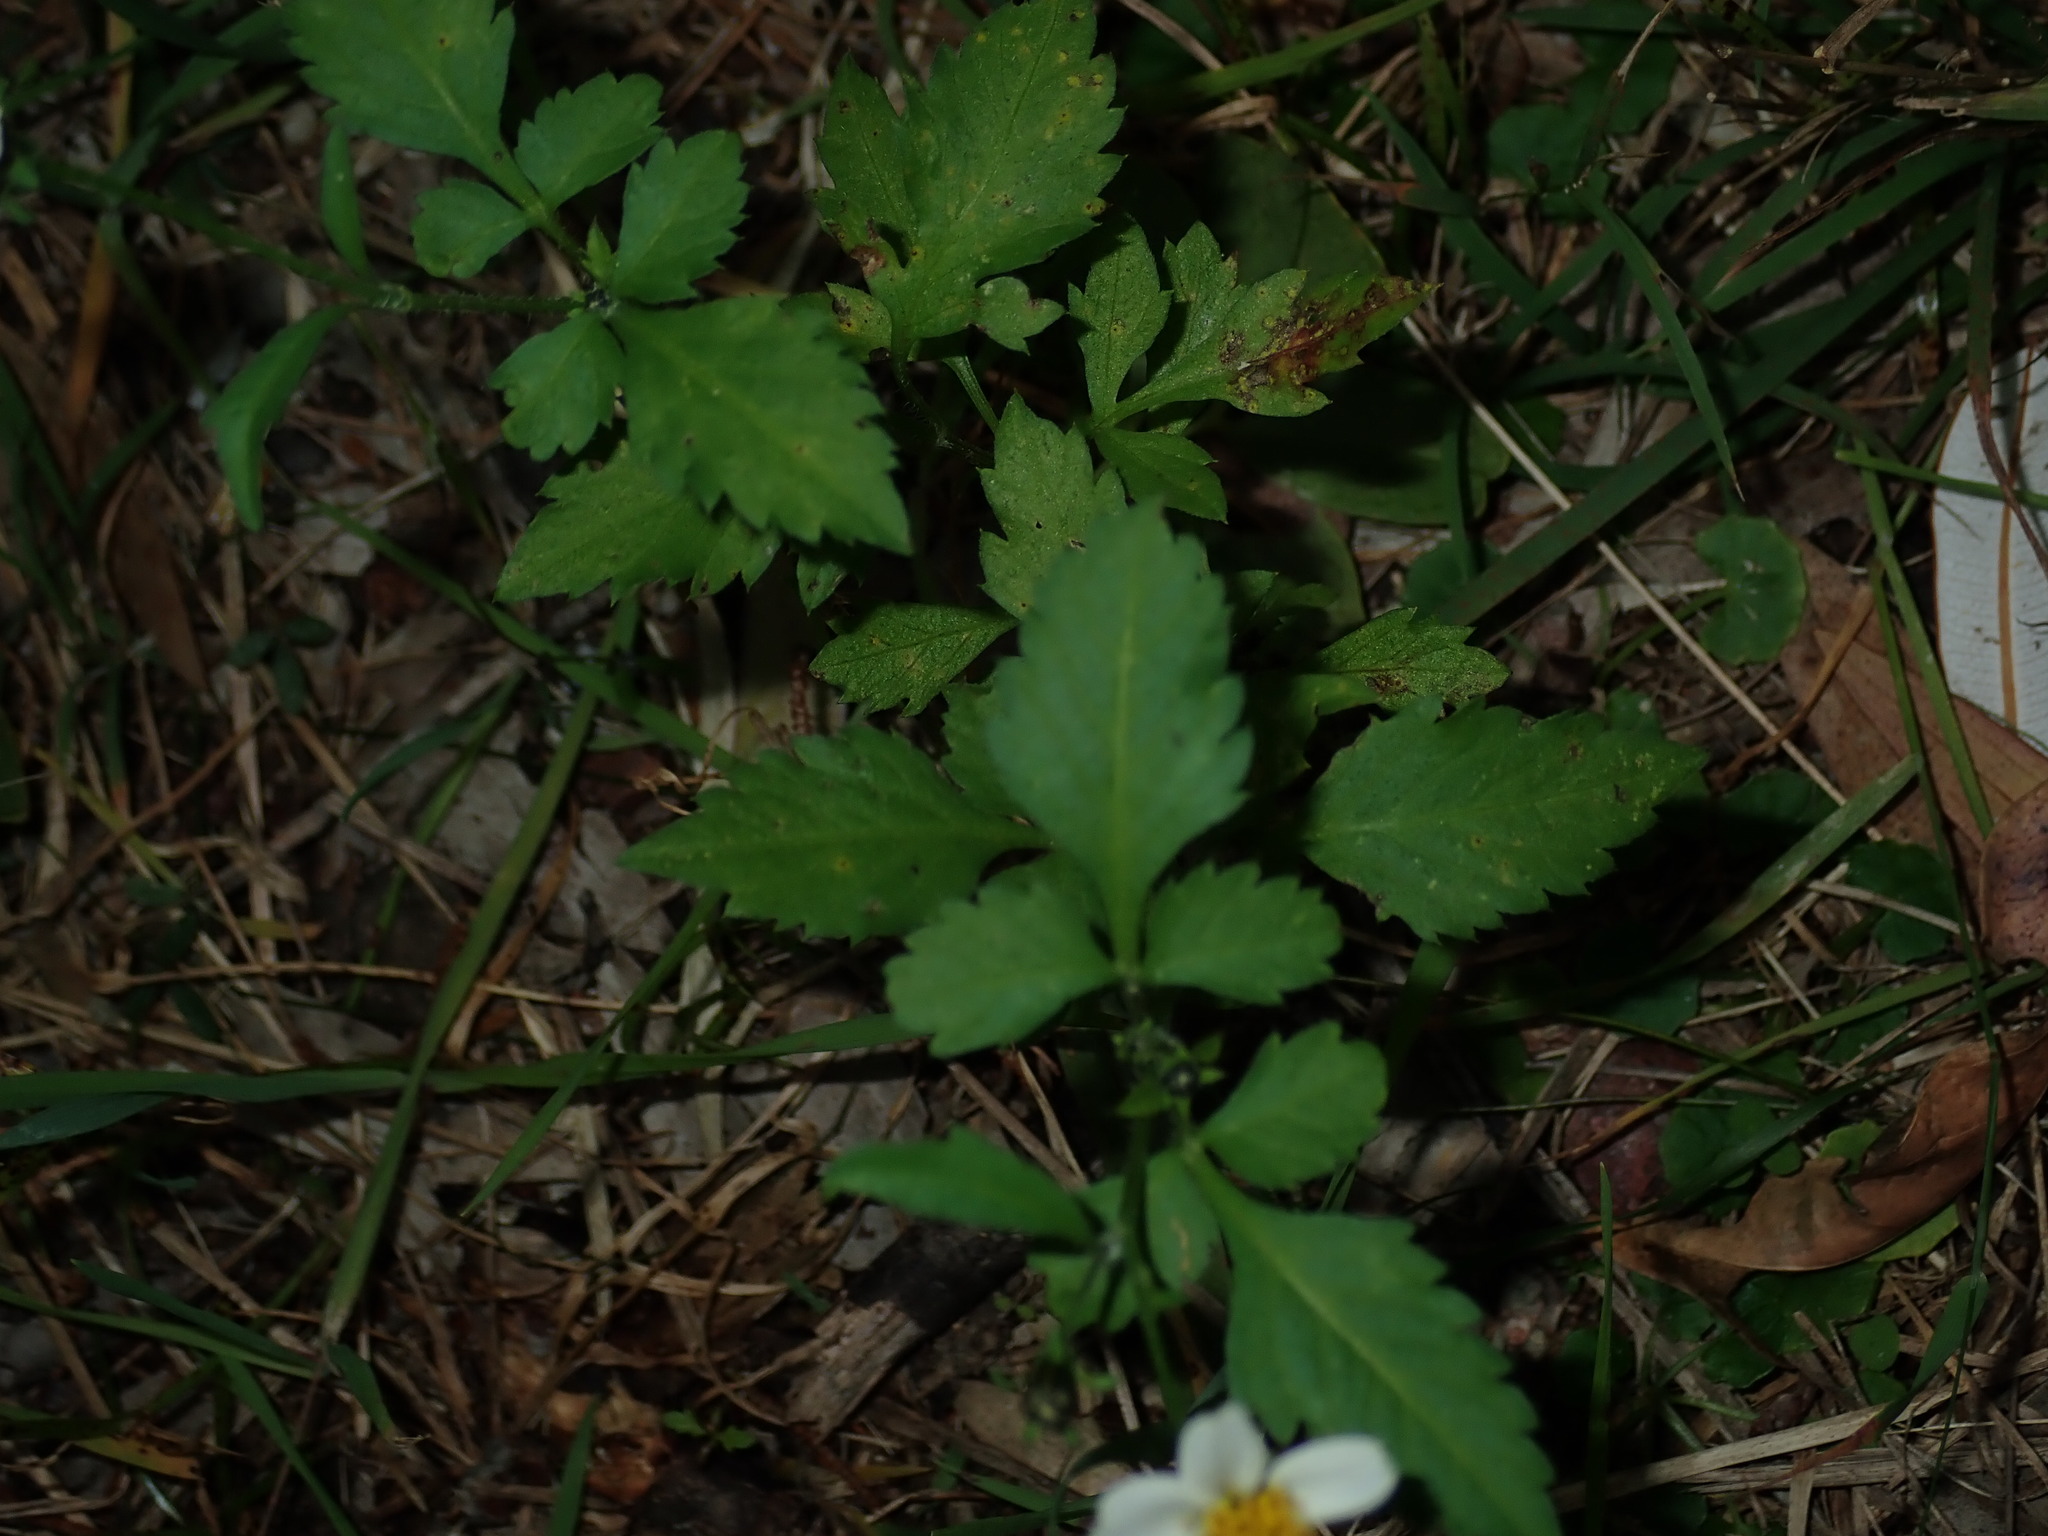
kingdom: Plantae
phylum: Tracheophyta
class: Magnoliopsida
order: Asterales
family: Asteraceae
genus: Bidens
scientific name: Bidens alba
